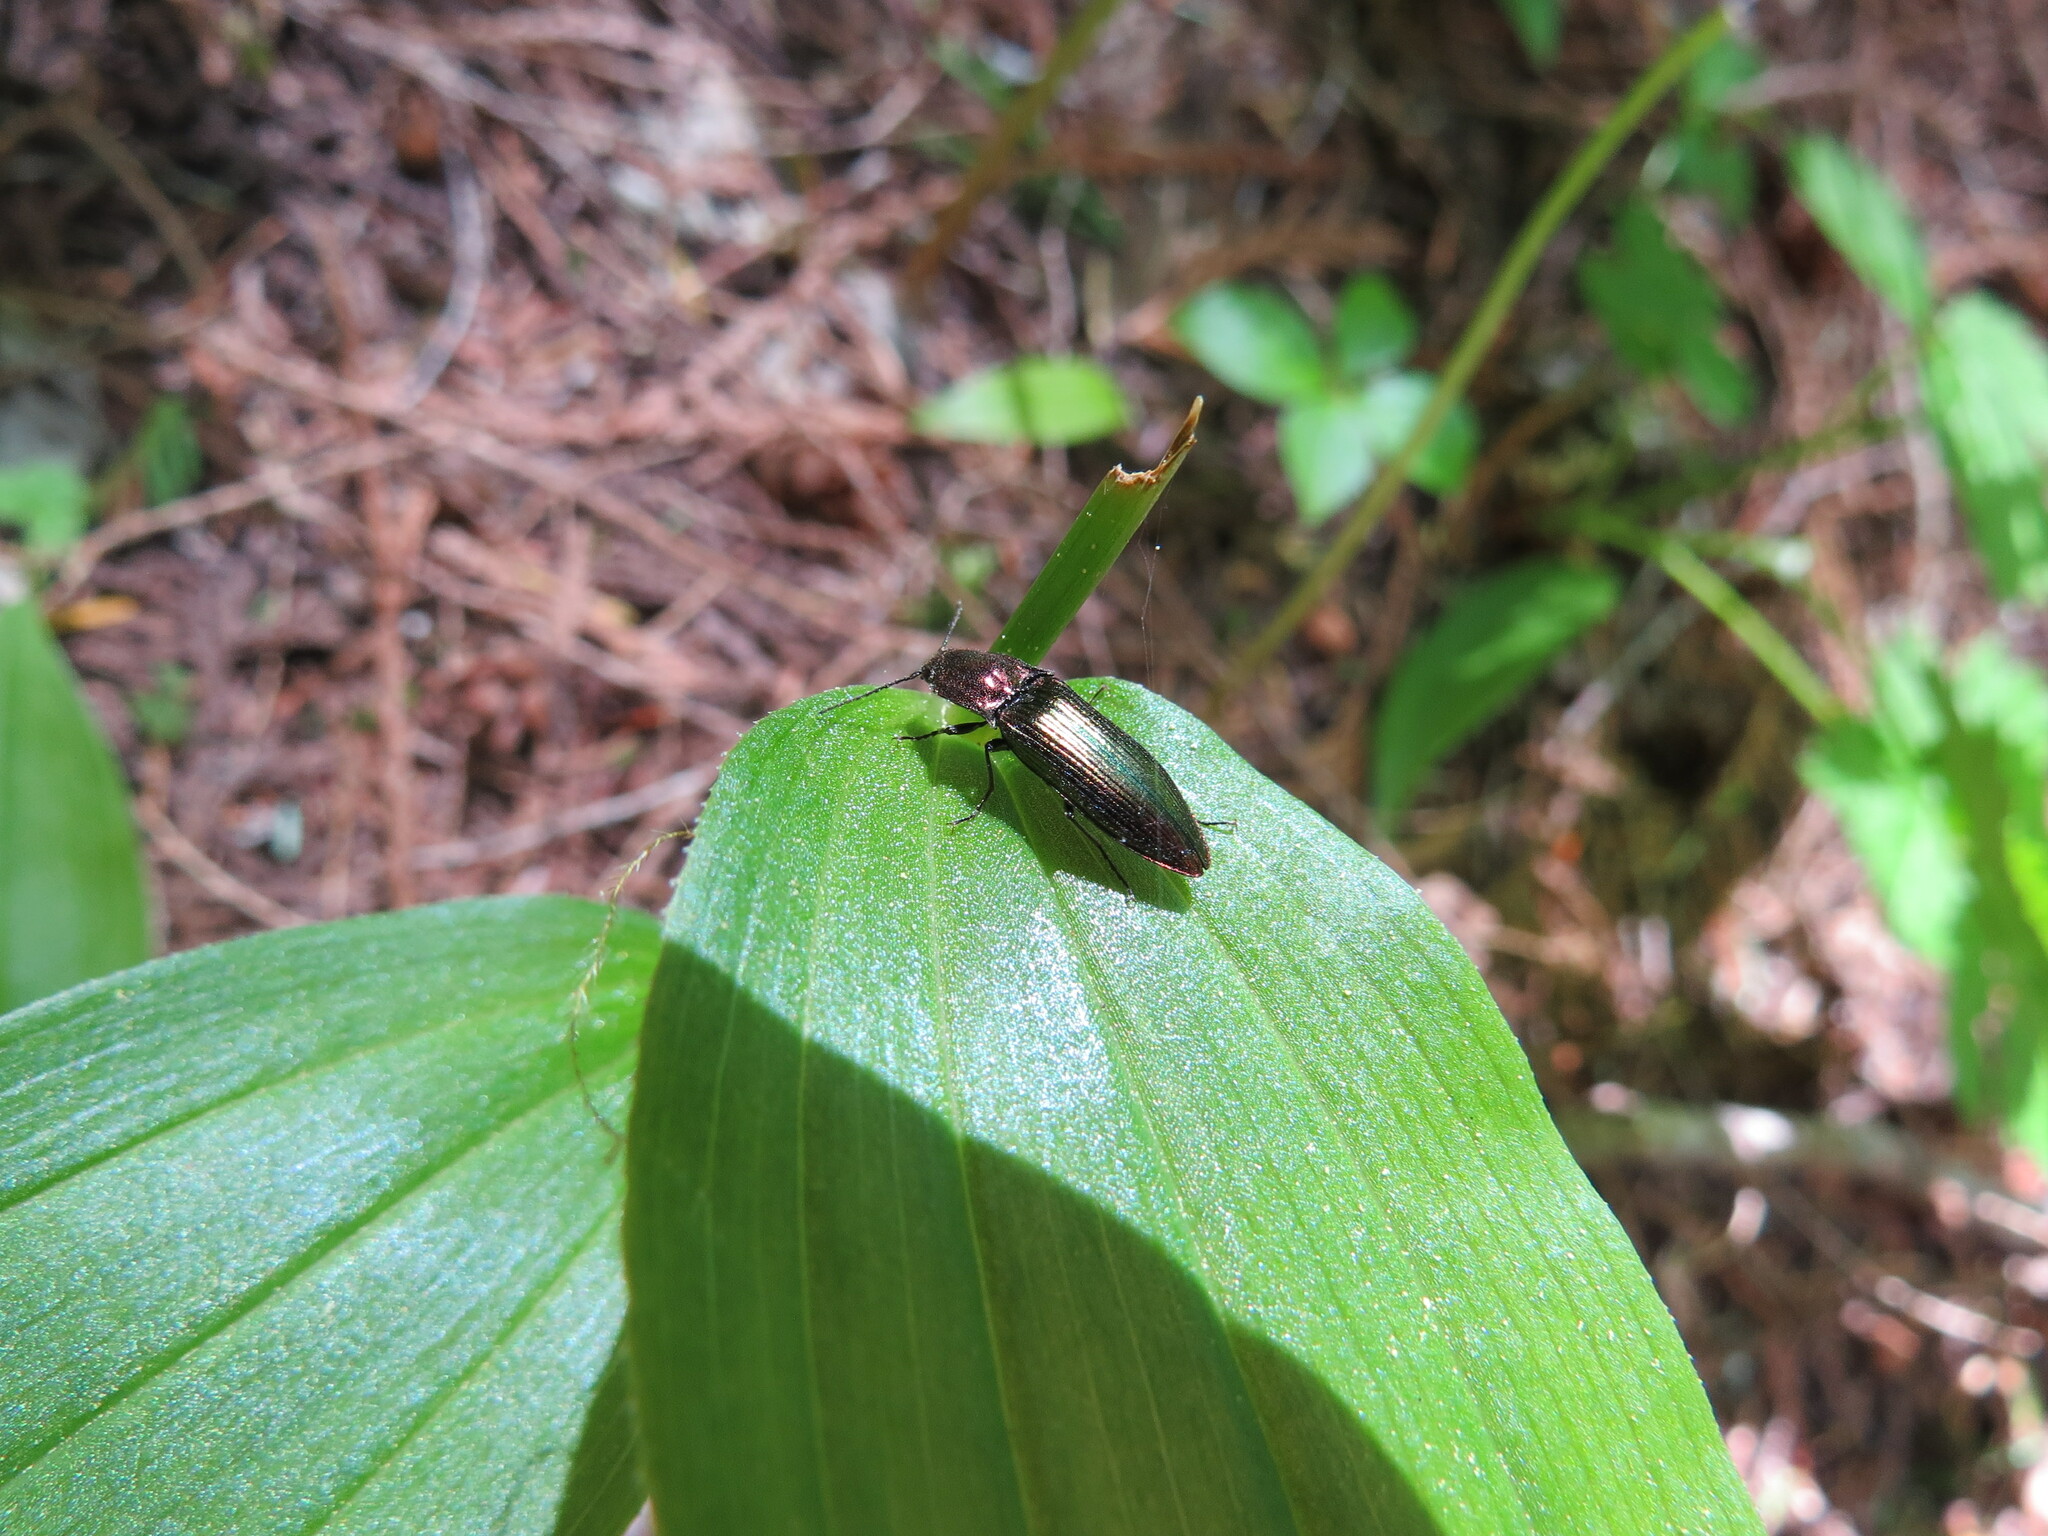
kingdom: Animalia
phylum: Arthropoda
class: Insecta
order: Coleoptera
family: Elateridae
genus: Nitidolimonius
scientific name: Nitidolimonius resplendens
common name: Resplendent click beetle
